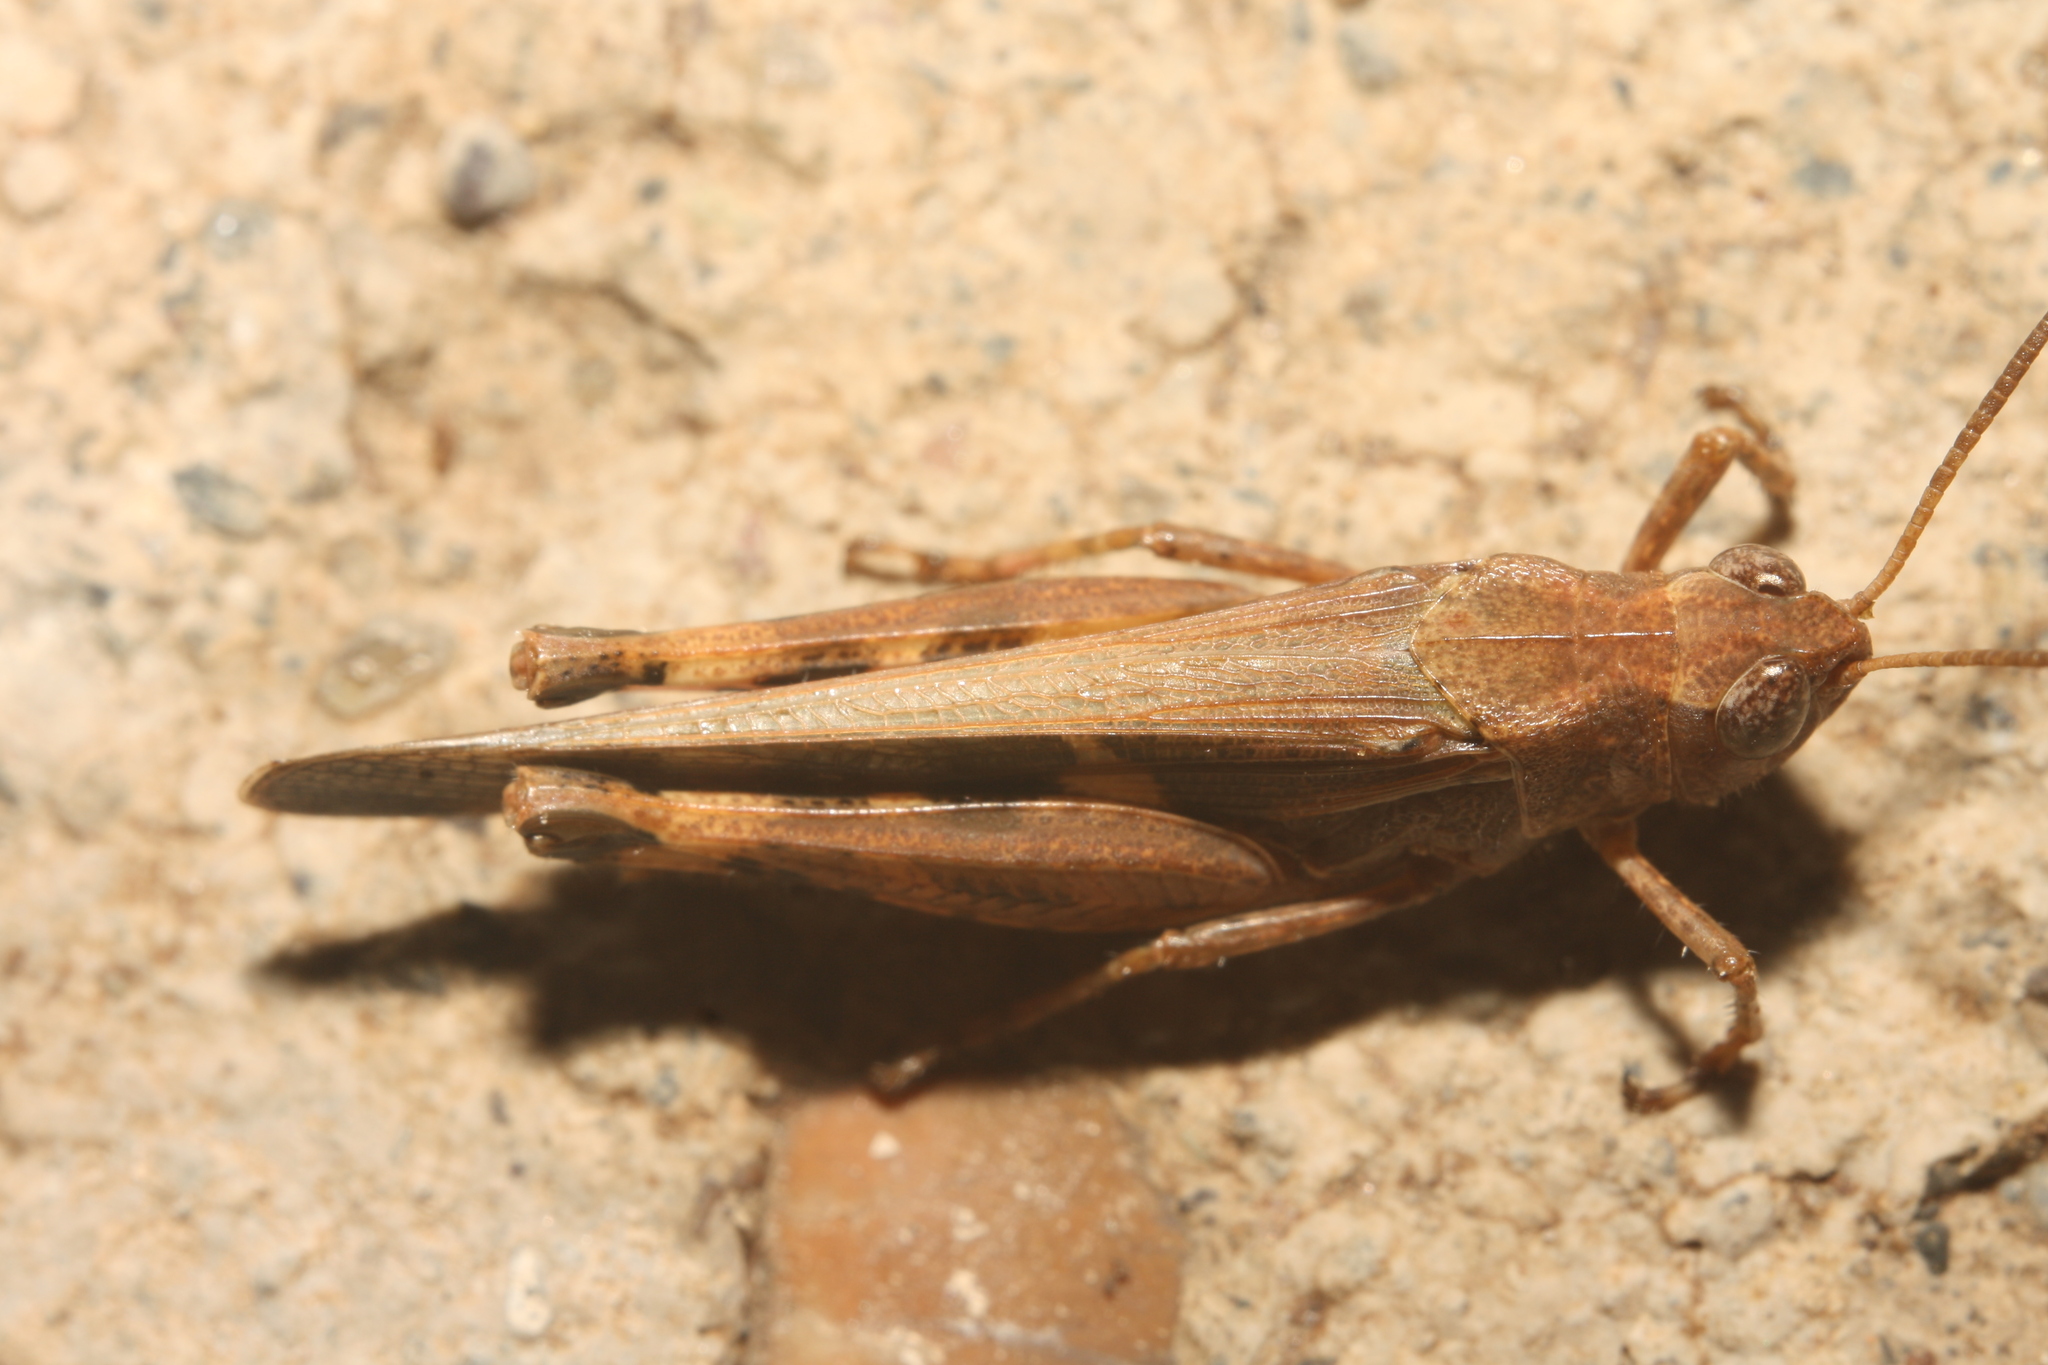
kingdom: Animalia
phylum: Arthropoda
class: Insecta
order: Orthoptera
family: Acrididae
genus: Aiolopus
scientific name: Aiolopus strepens
